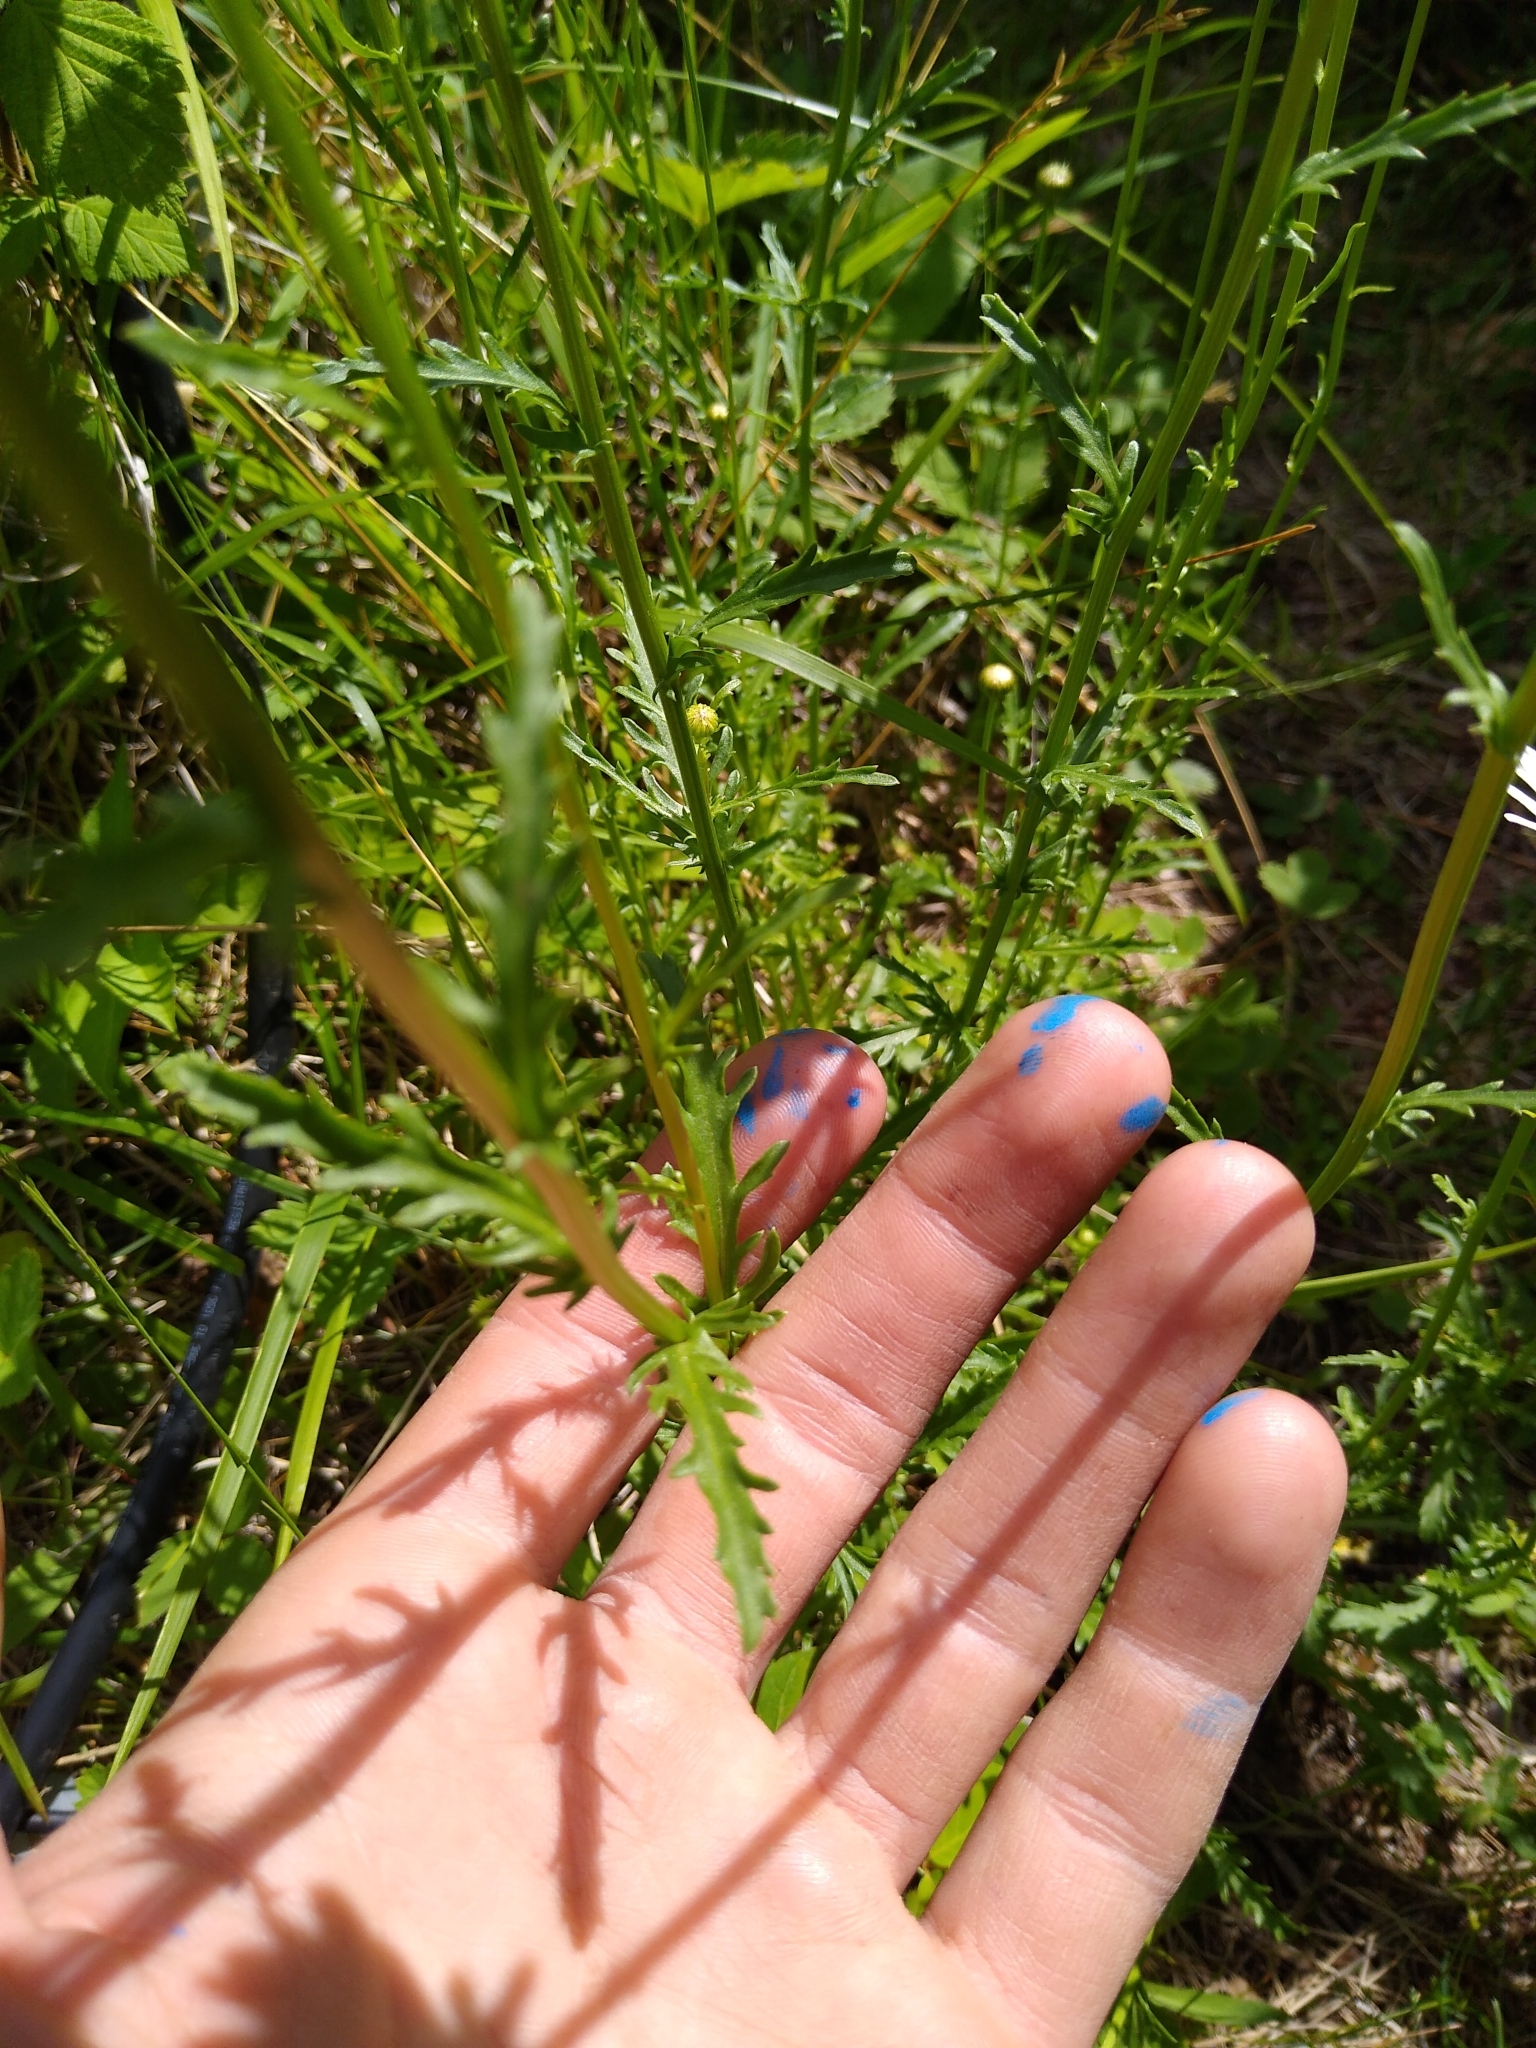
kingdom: Plantae
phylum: Tracheophyta
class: Magnoliopsida
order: Asterales
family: Asteraceae
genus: Leucanthemum
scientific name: Leucanthemum vulgare
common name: Oxeye daisy
